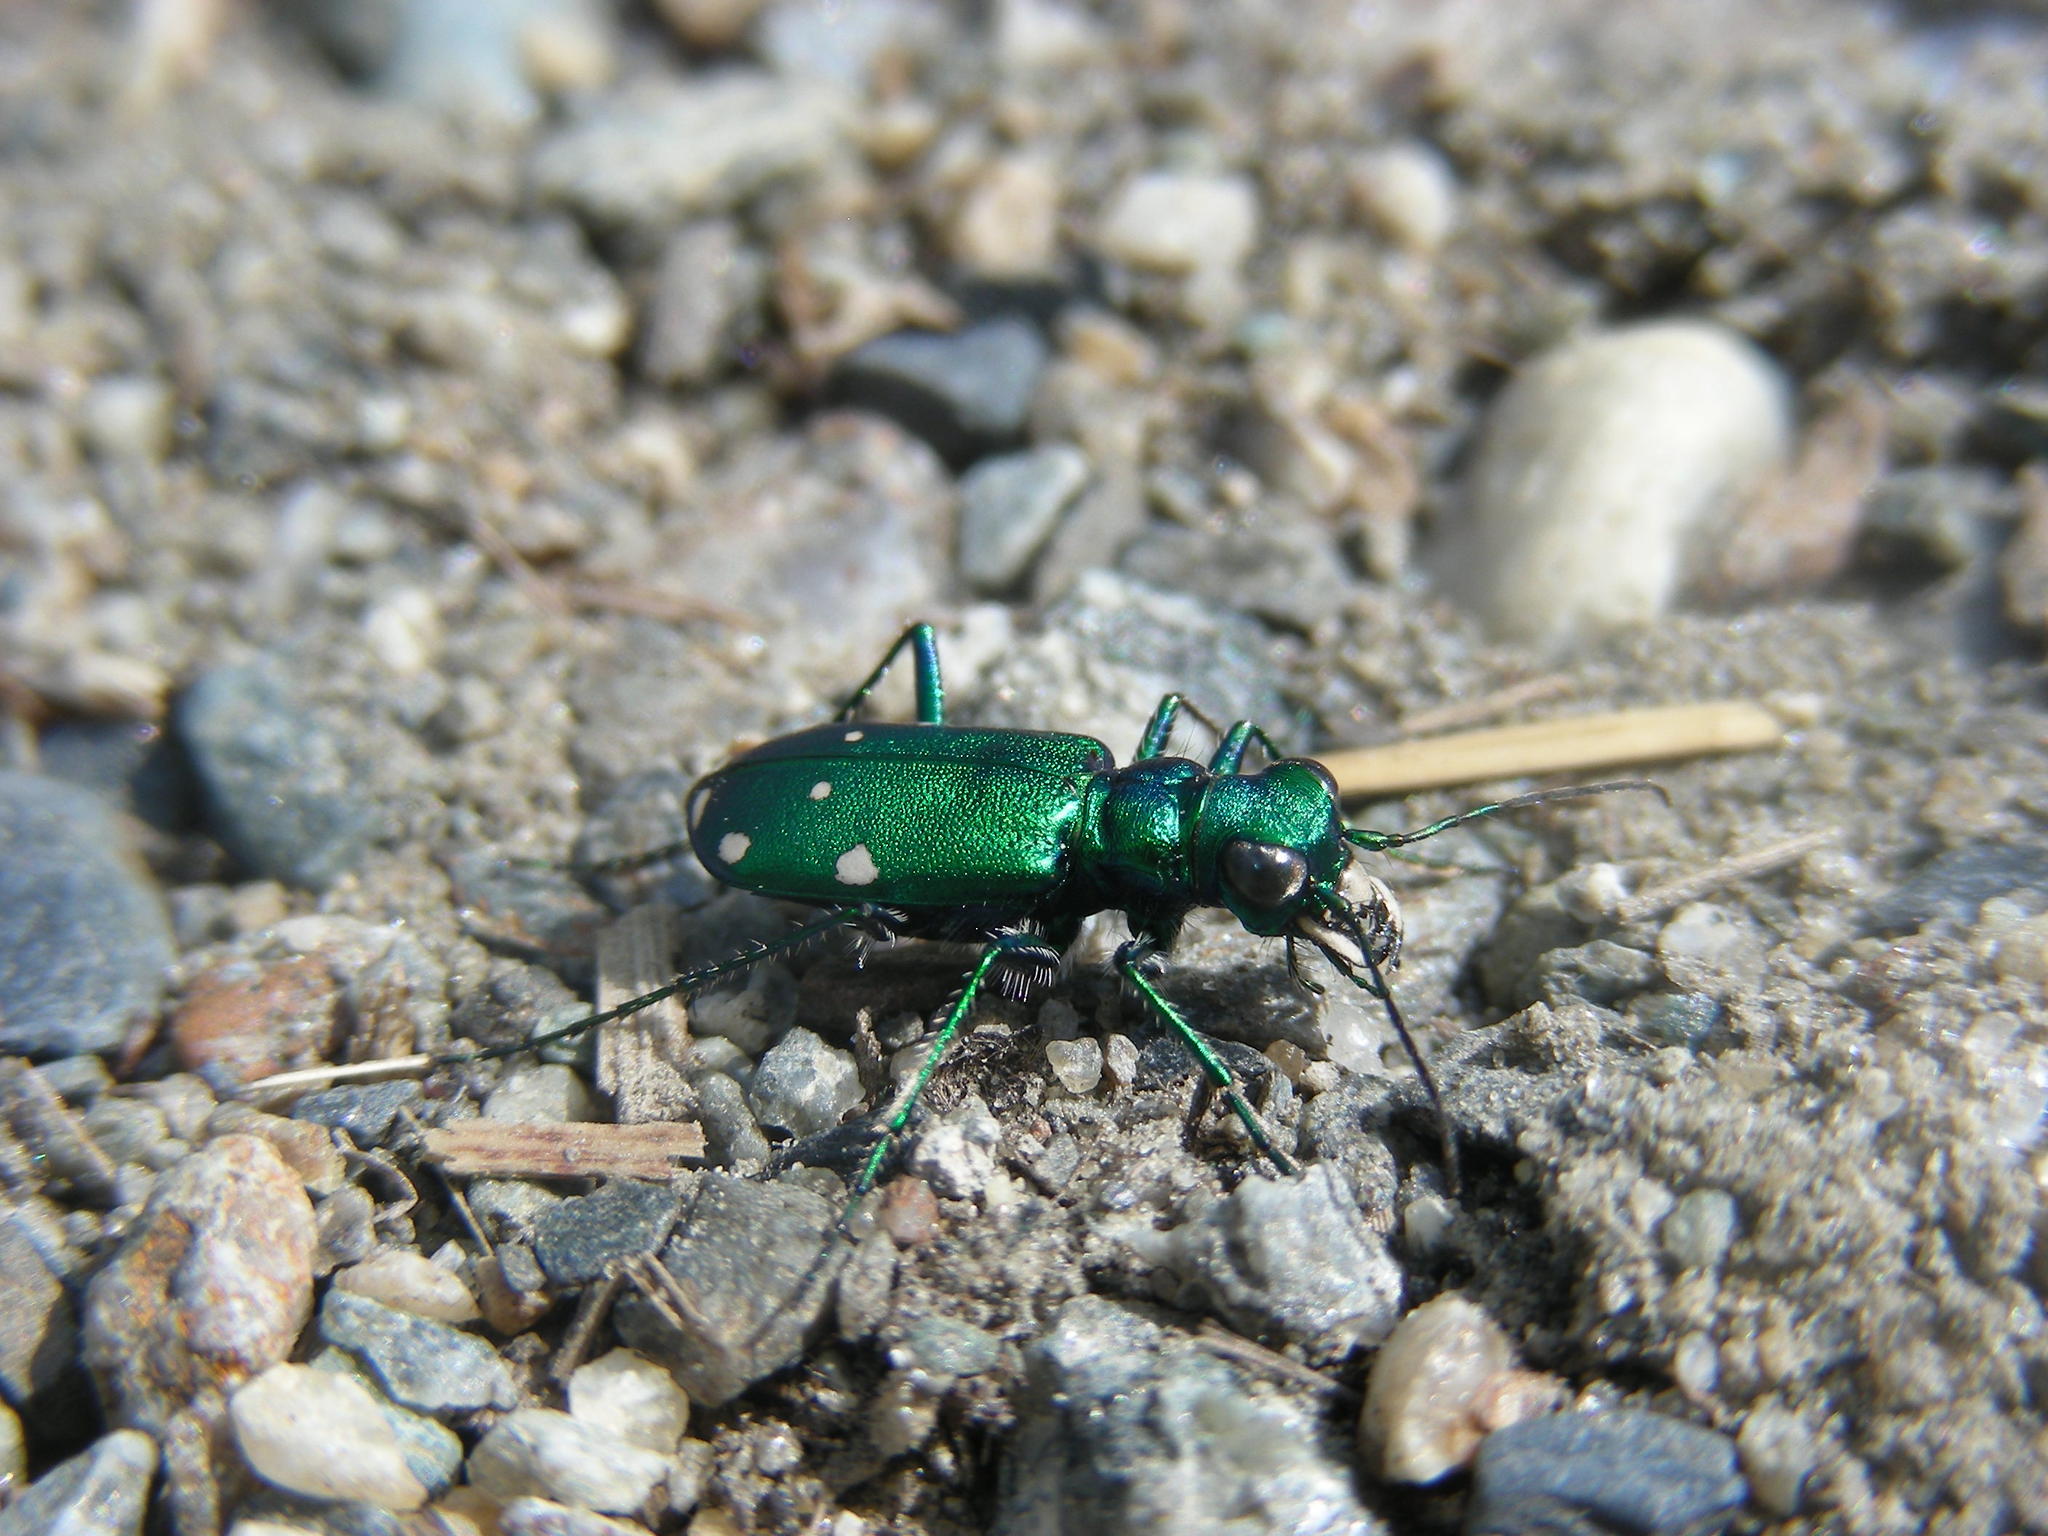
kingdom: Animalia
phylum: Arthropoda
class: Insecta
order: Coleoptera
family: Carabidae
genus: Cicindela
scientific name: Cicindela sexguttata
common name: Six-spotted tiger beetle
